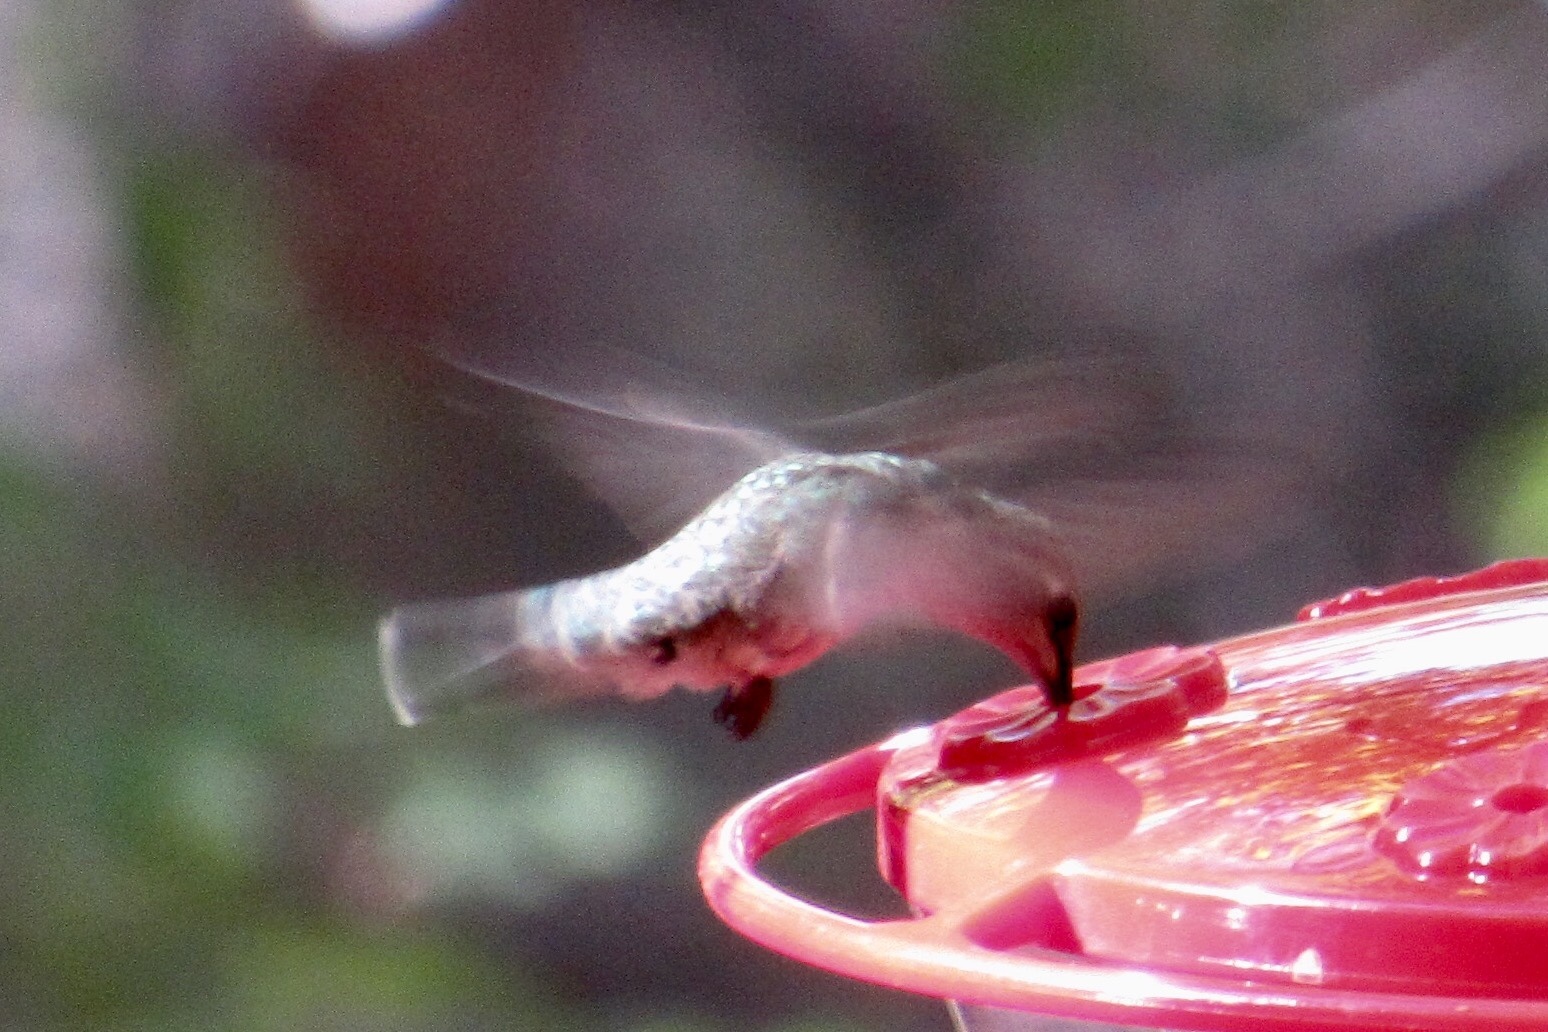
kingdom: Animalia
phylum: Chordata
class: Aves
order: Apodiformes
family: Trochilidae
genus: Archilochus
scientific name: Archilochus alexandri
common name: Black-chinned hummingbird
